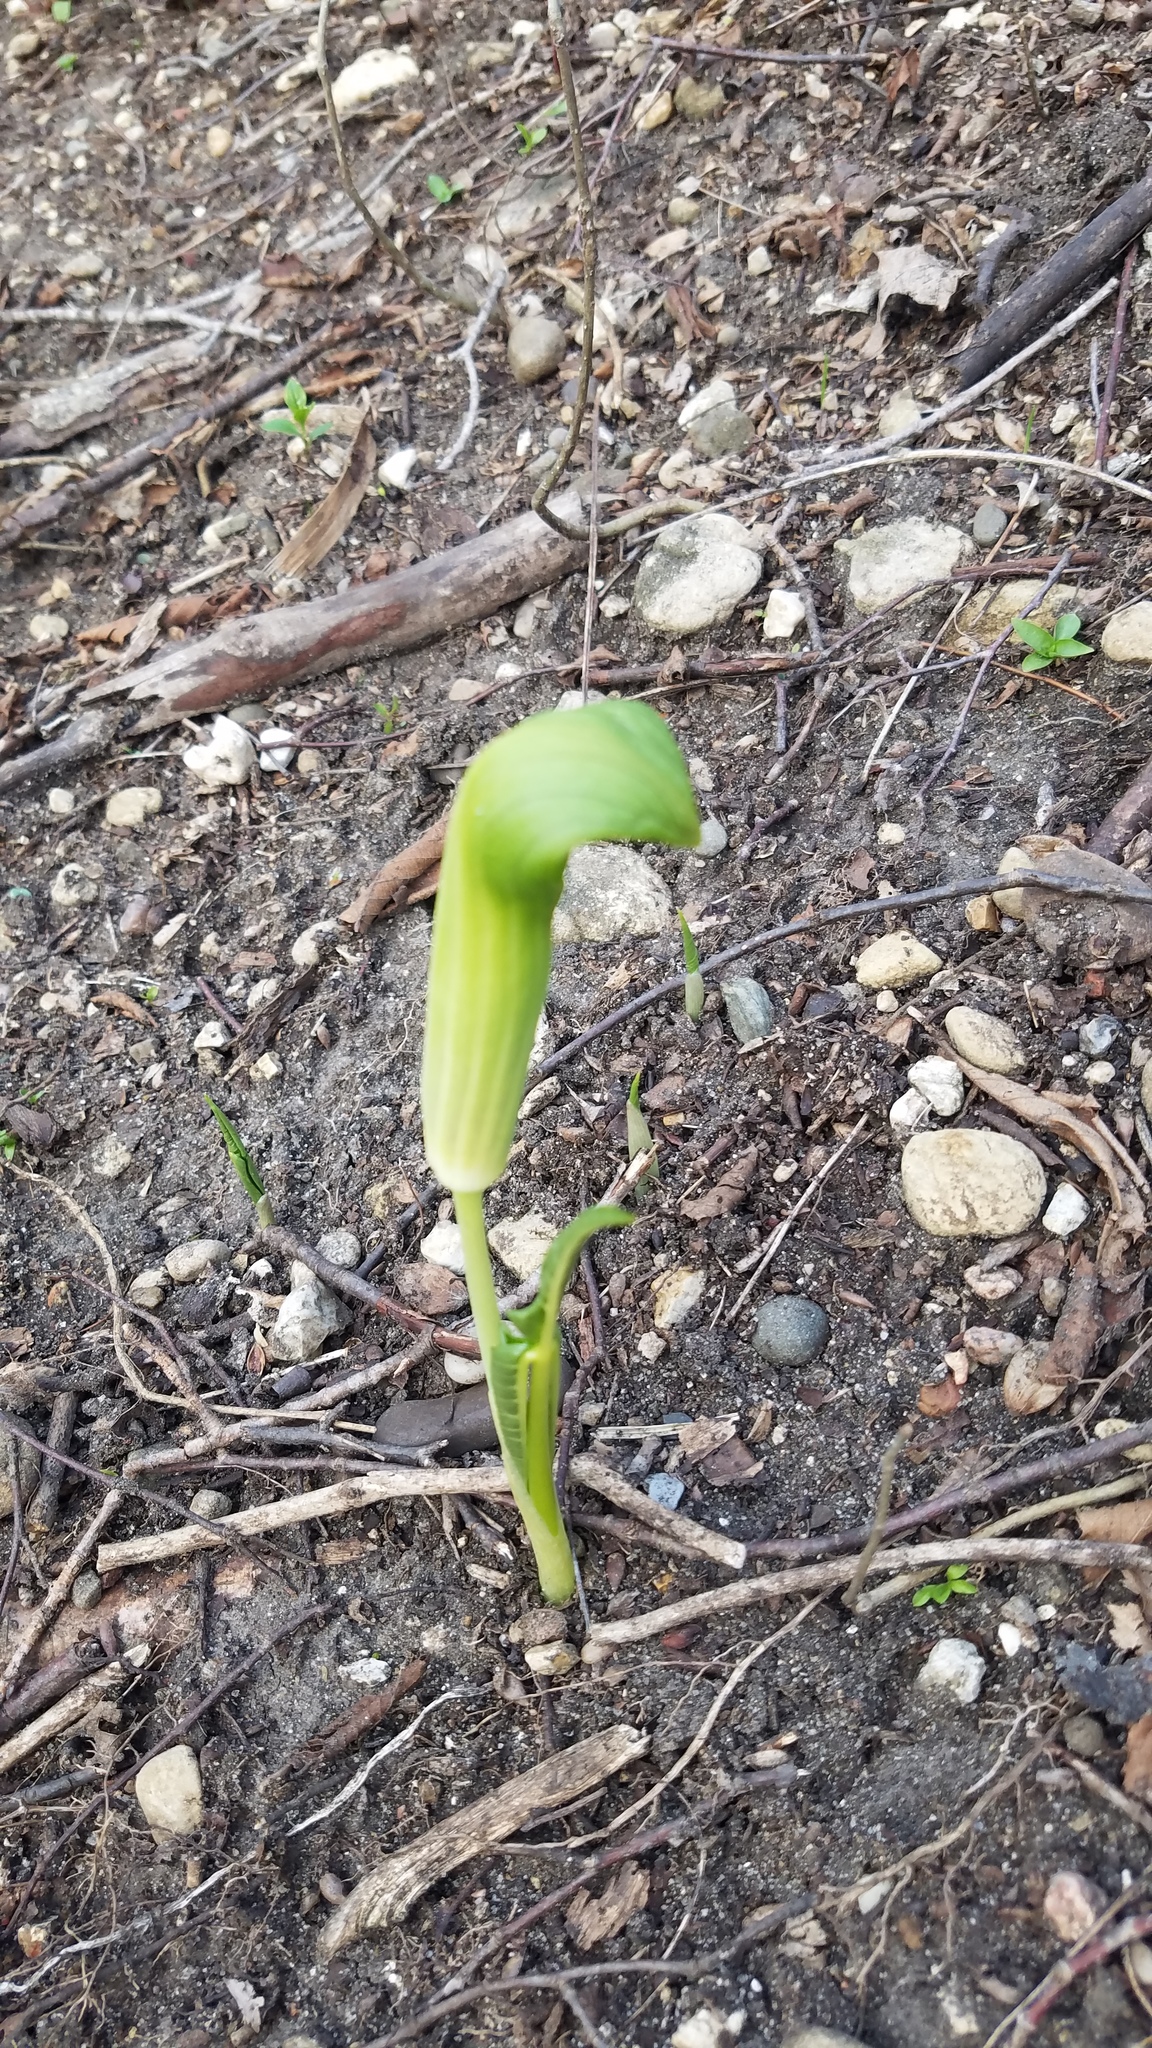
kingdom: Plantae
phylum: Tracheophyta
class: Liliopsida
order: Alismatales
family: Araceae
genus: Arisaema
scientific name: Arisaema triphyllum
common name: Jack-in-the-pulpit
